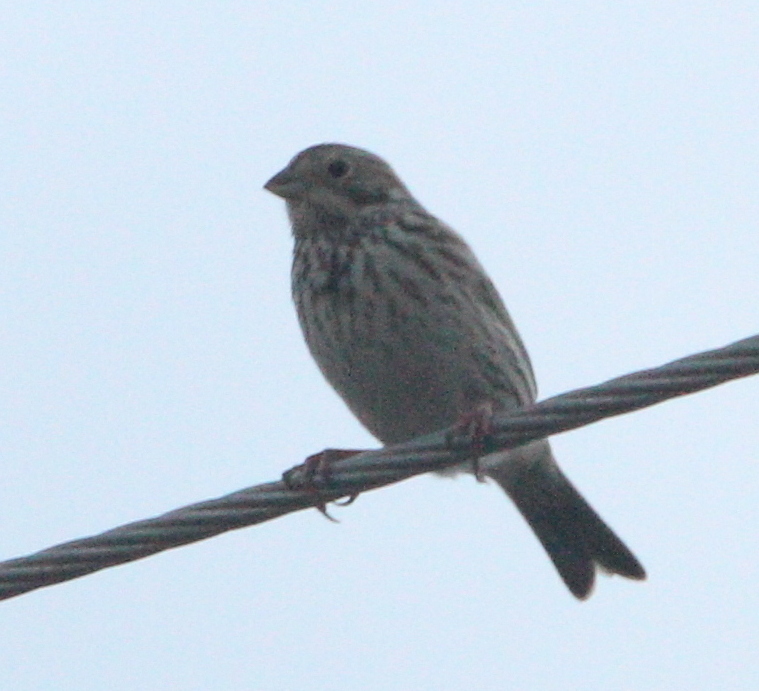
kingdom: Animalia
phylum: Chordata
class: Aves
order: Passeriformes
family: Emberizidae
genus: Emberiza
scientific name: Emberiza calandra
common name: Corn bunting
